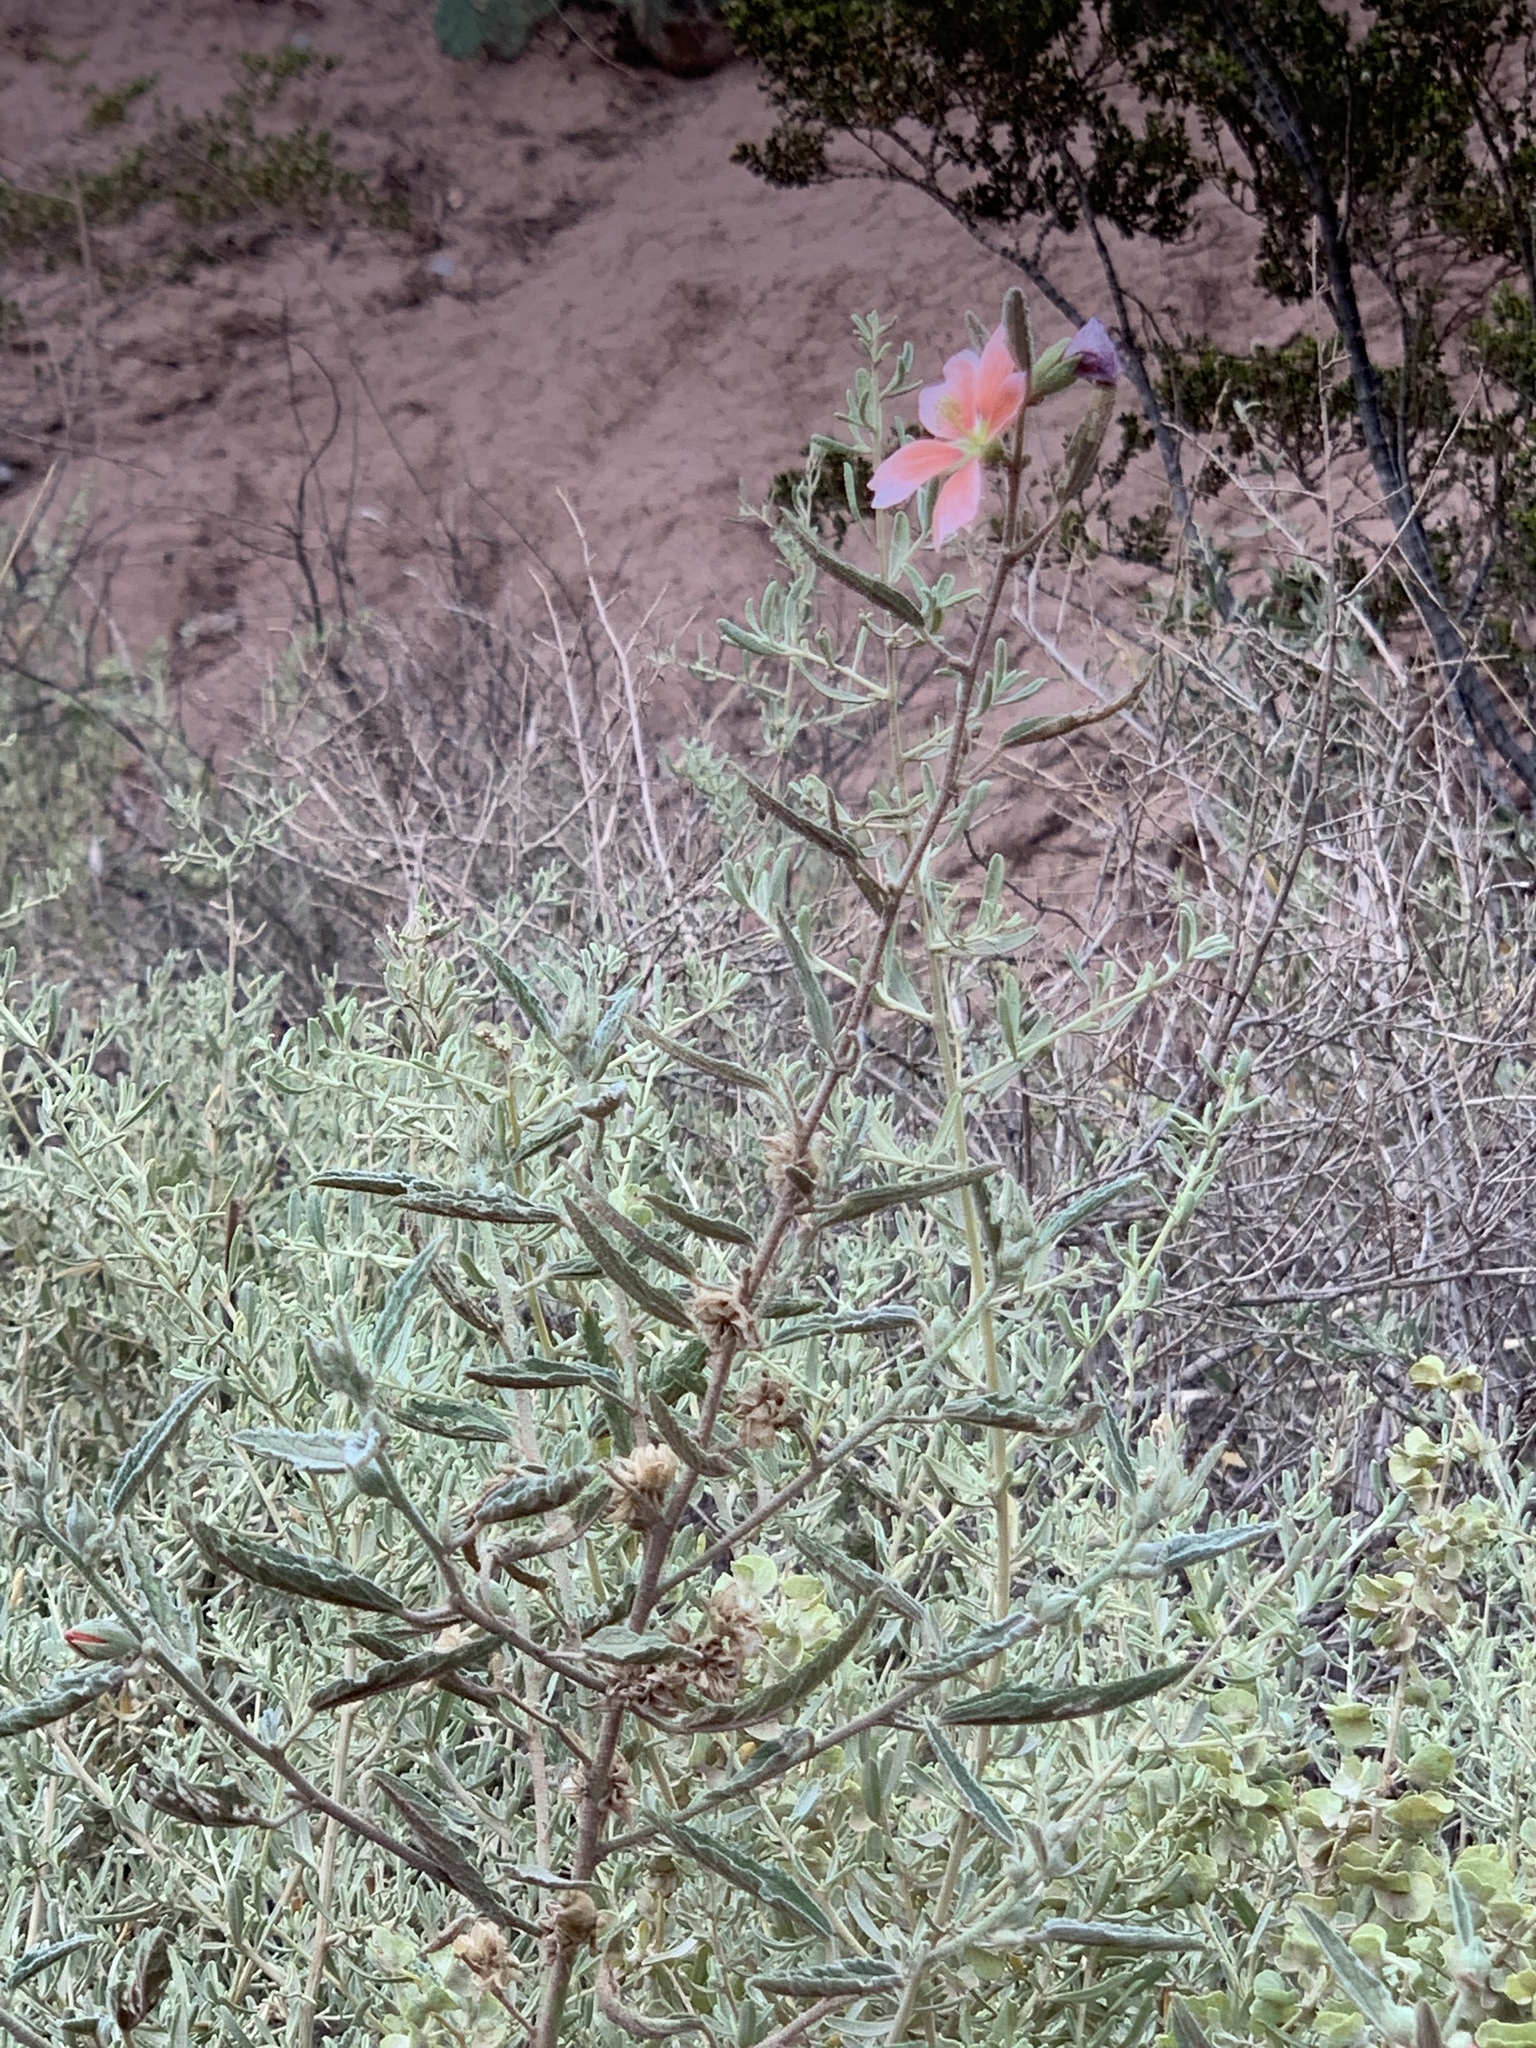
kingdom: Plantae
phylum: Tracheophyta
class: Magnoliopsida
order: Malvales
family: Malvaceae
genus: Sphaeralcea
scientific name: Sphaeralcea angustifolia
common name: Copper globe-mallow
